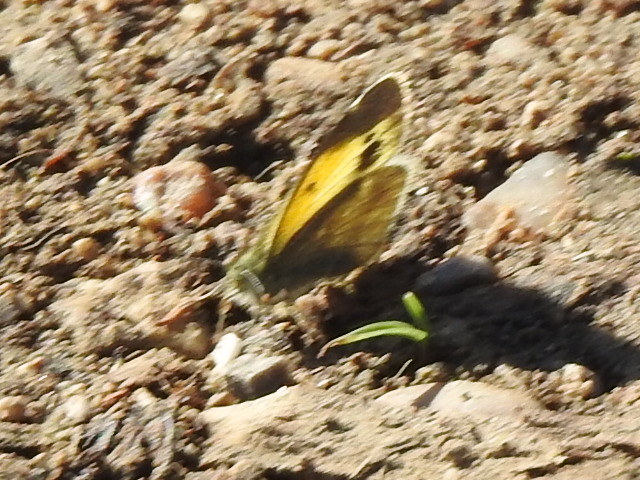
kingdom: Animalia
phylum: Arthropoda
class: Insecta
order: Lepidoptera
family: Pieridae
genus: Nathalis
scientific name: Nathalis iole
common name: Dainty sulphur
